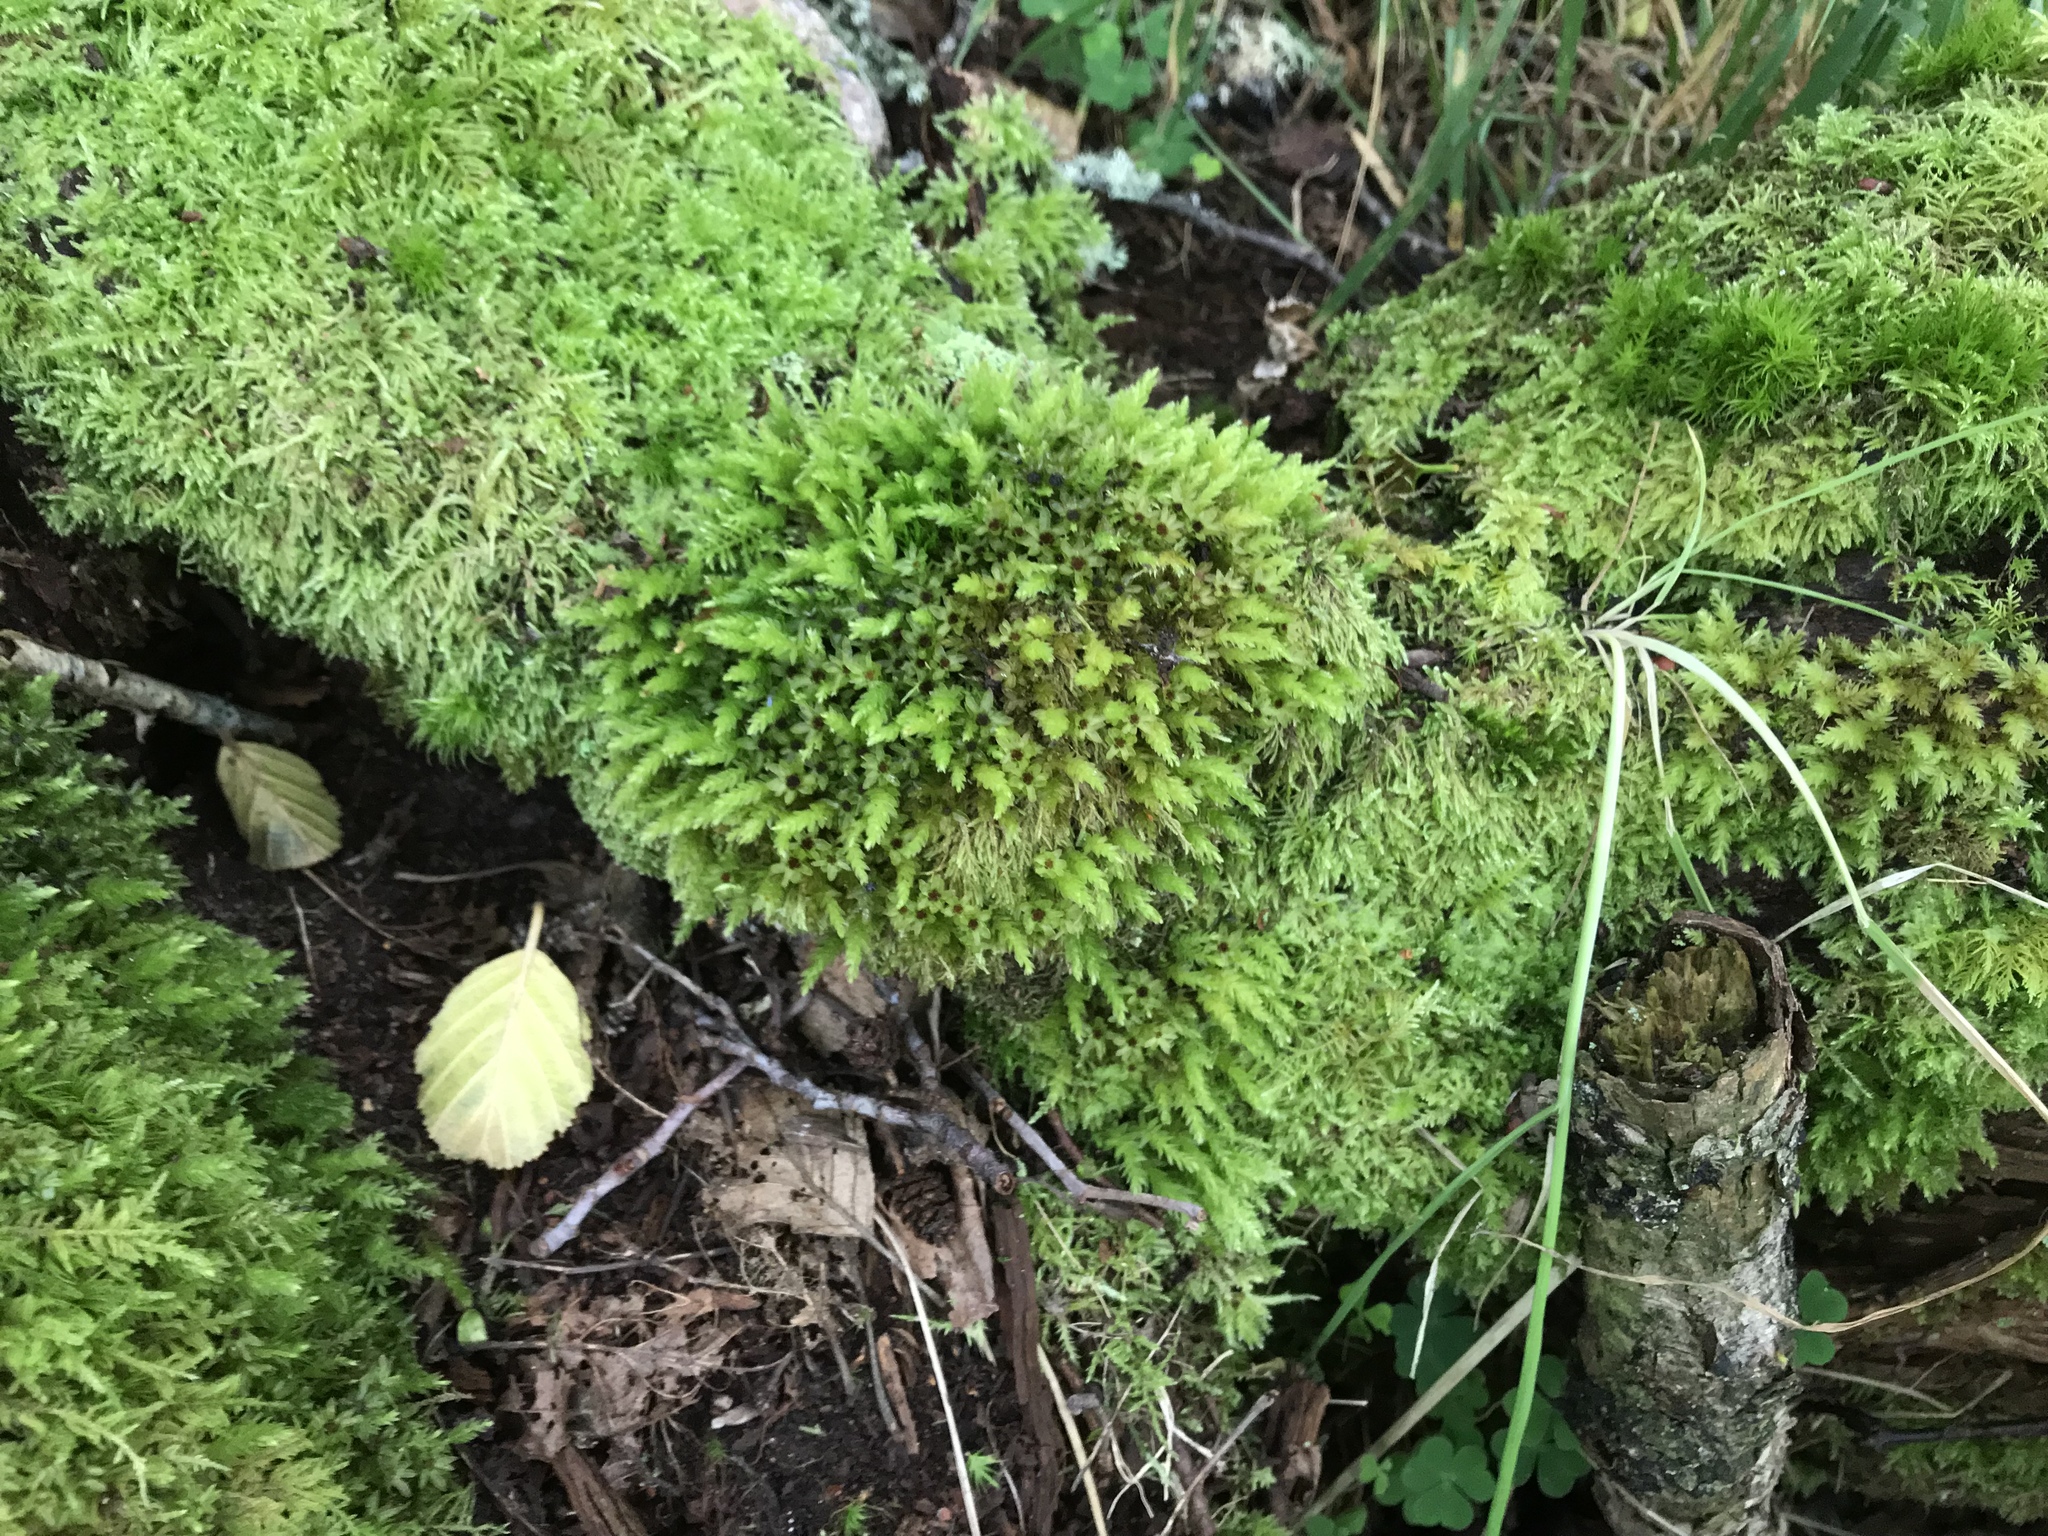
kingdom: Plantae
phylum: Bryophyta
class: Bryopsida
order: Bryales
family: Mniaceae
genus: Mnium
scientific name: Mnium hornum
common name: Swan's-neck leafy moss
